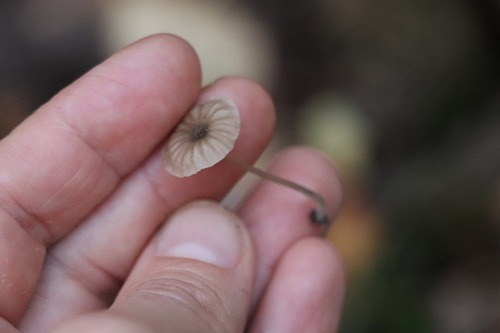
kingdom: Fungi
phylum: Basidiomycota
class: Agaricomycetes
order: Agaricales
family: Entolomataceae
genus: Entoloma
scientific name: Entoloma
